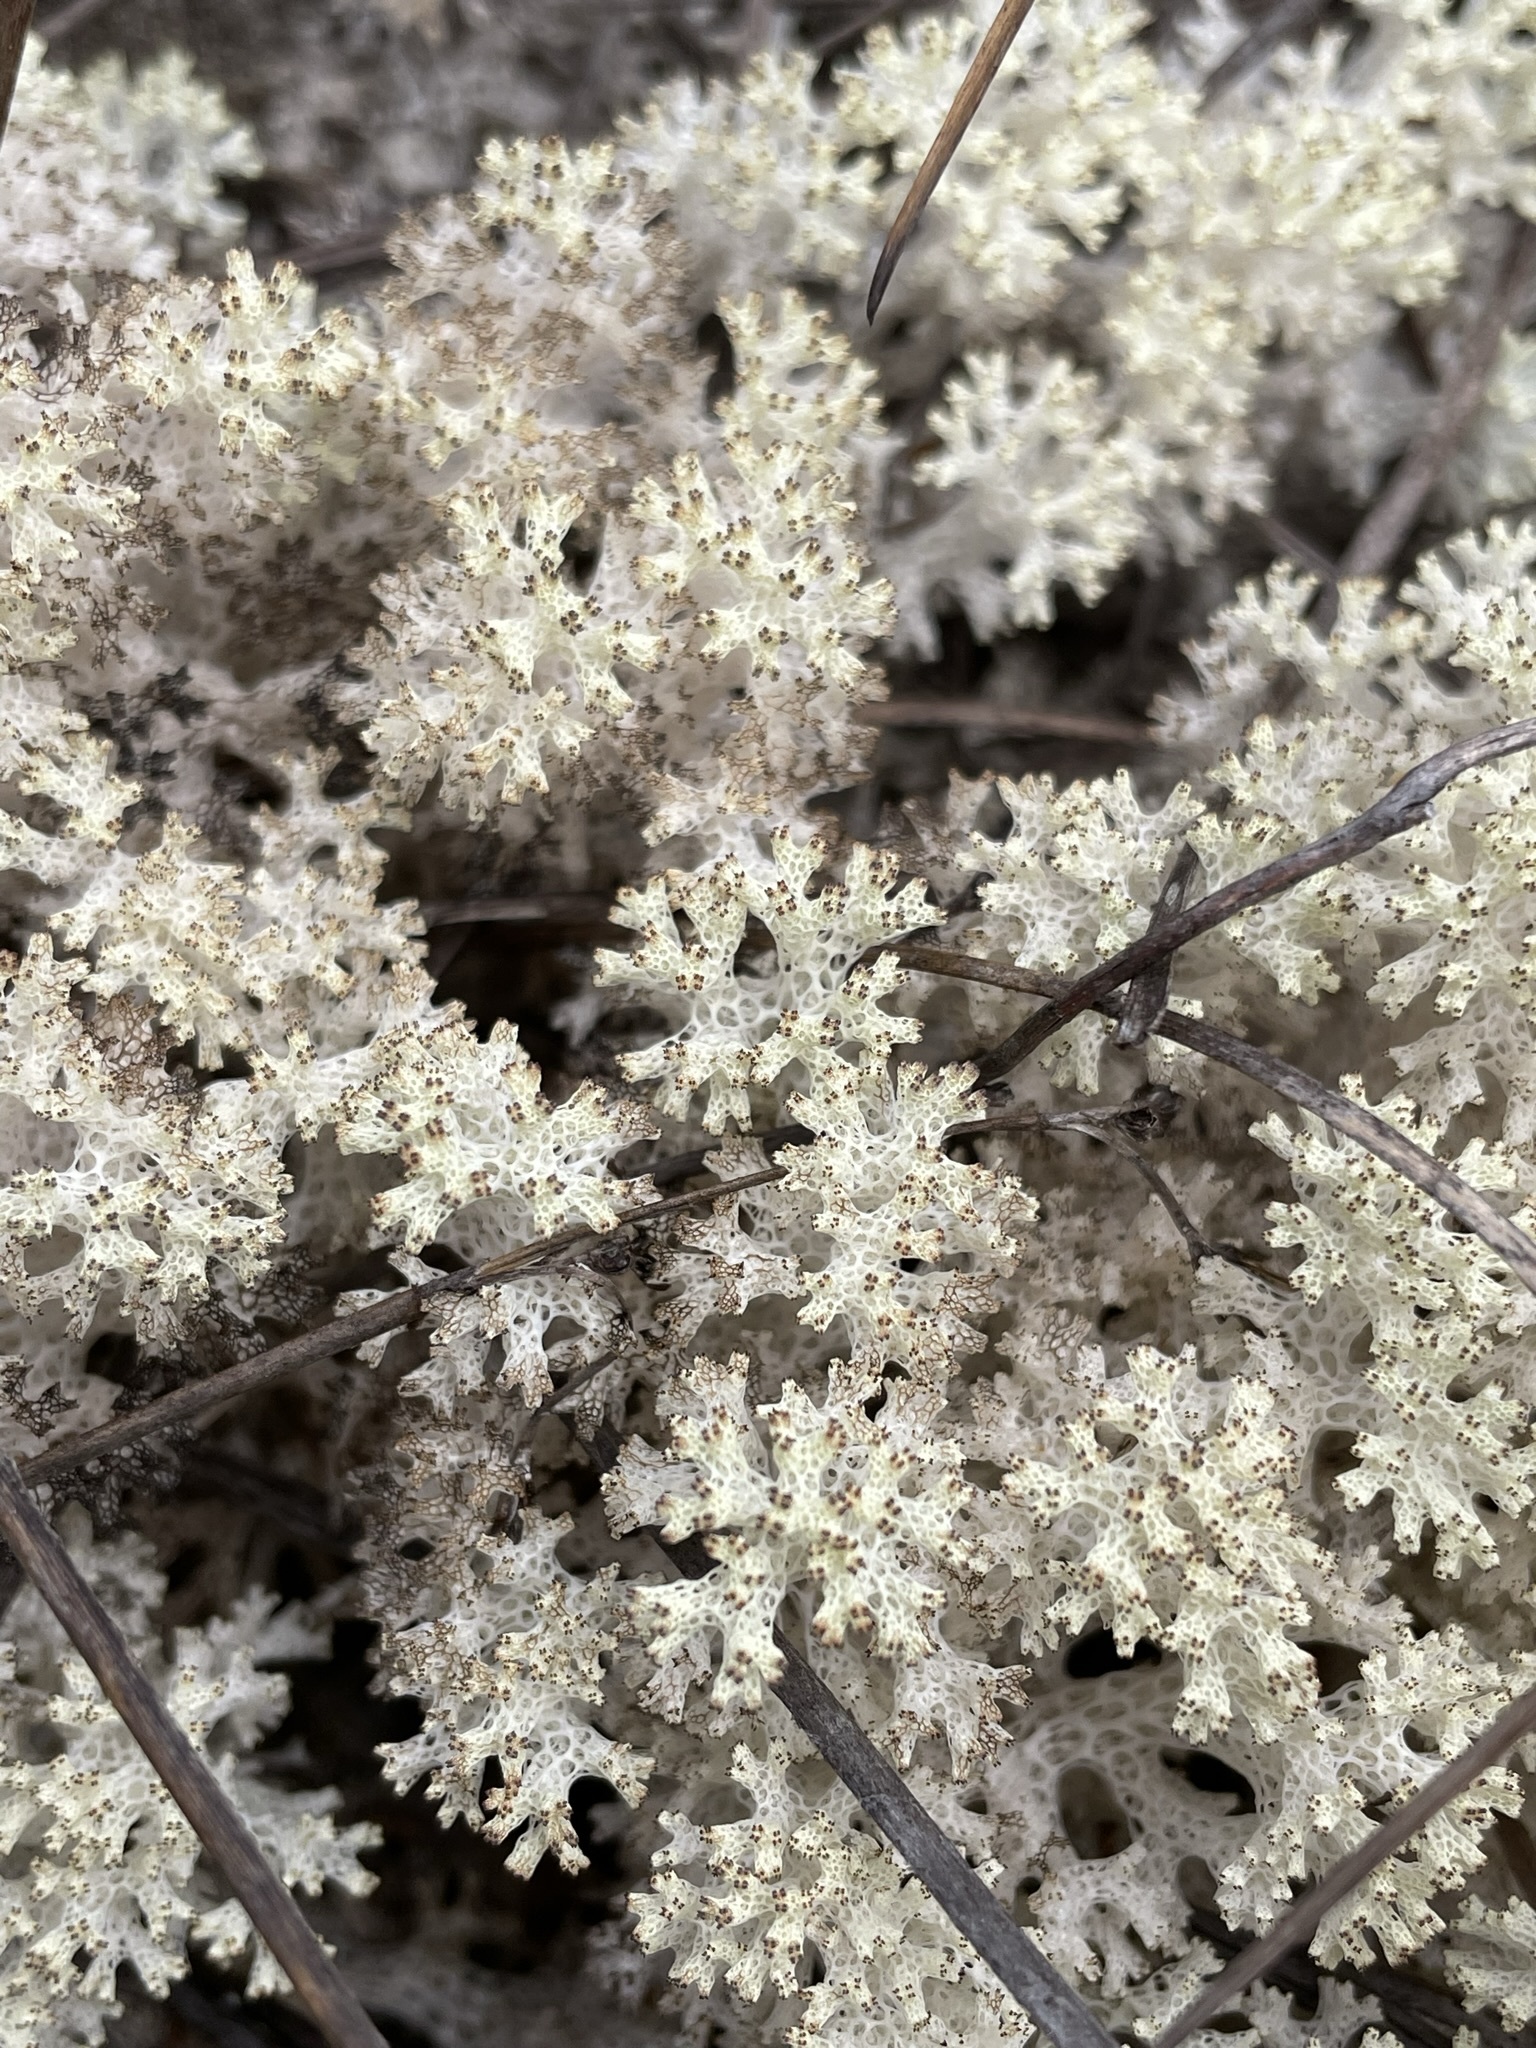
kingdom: Fungi
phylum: Ascomycota
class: Lecanoromycetes
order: Lecanorales
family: Cladoniaceae
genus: Pulchrocladia
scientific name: Pulchrocladia retipora
